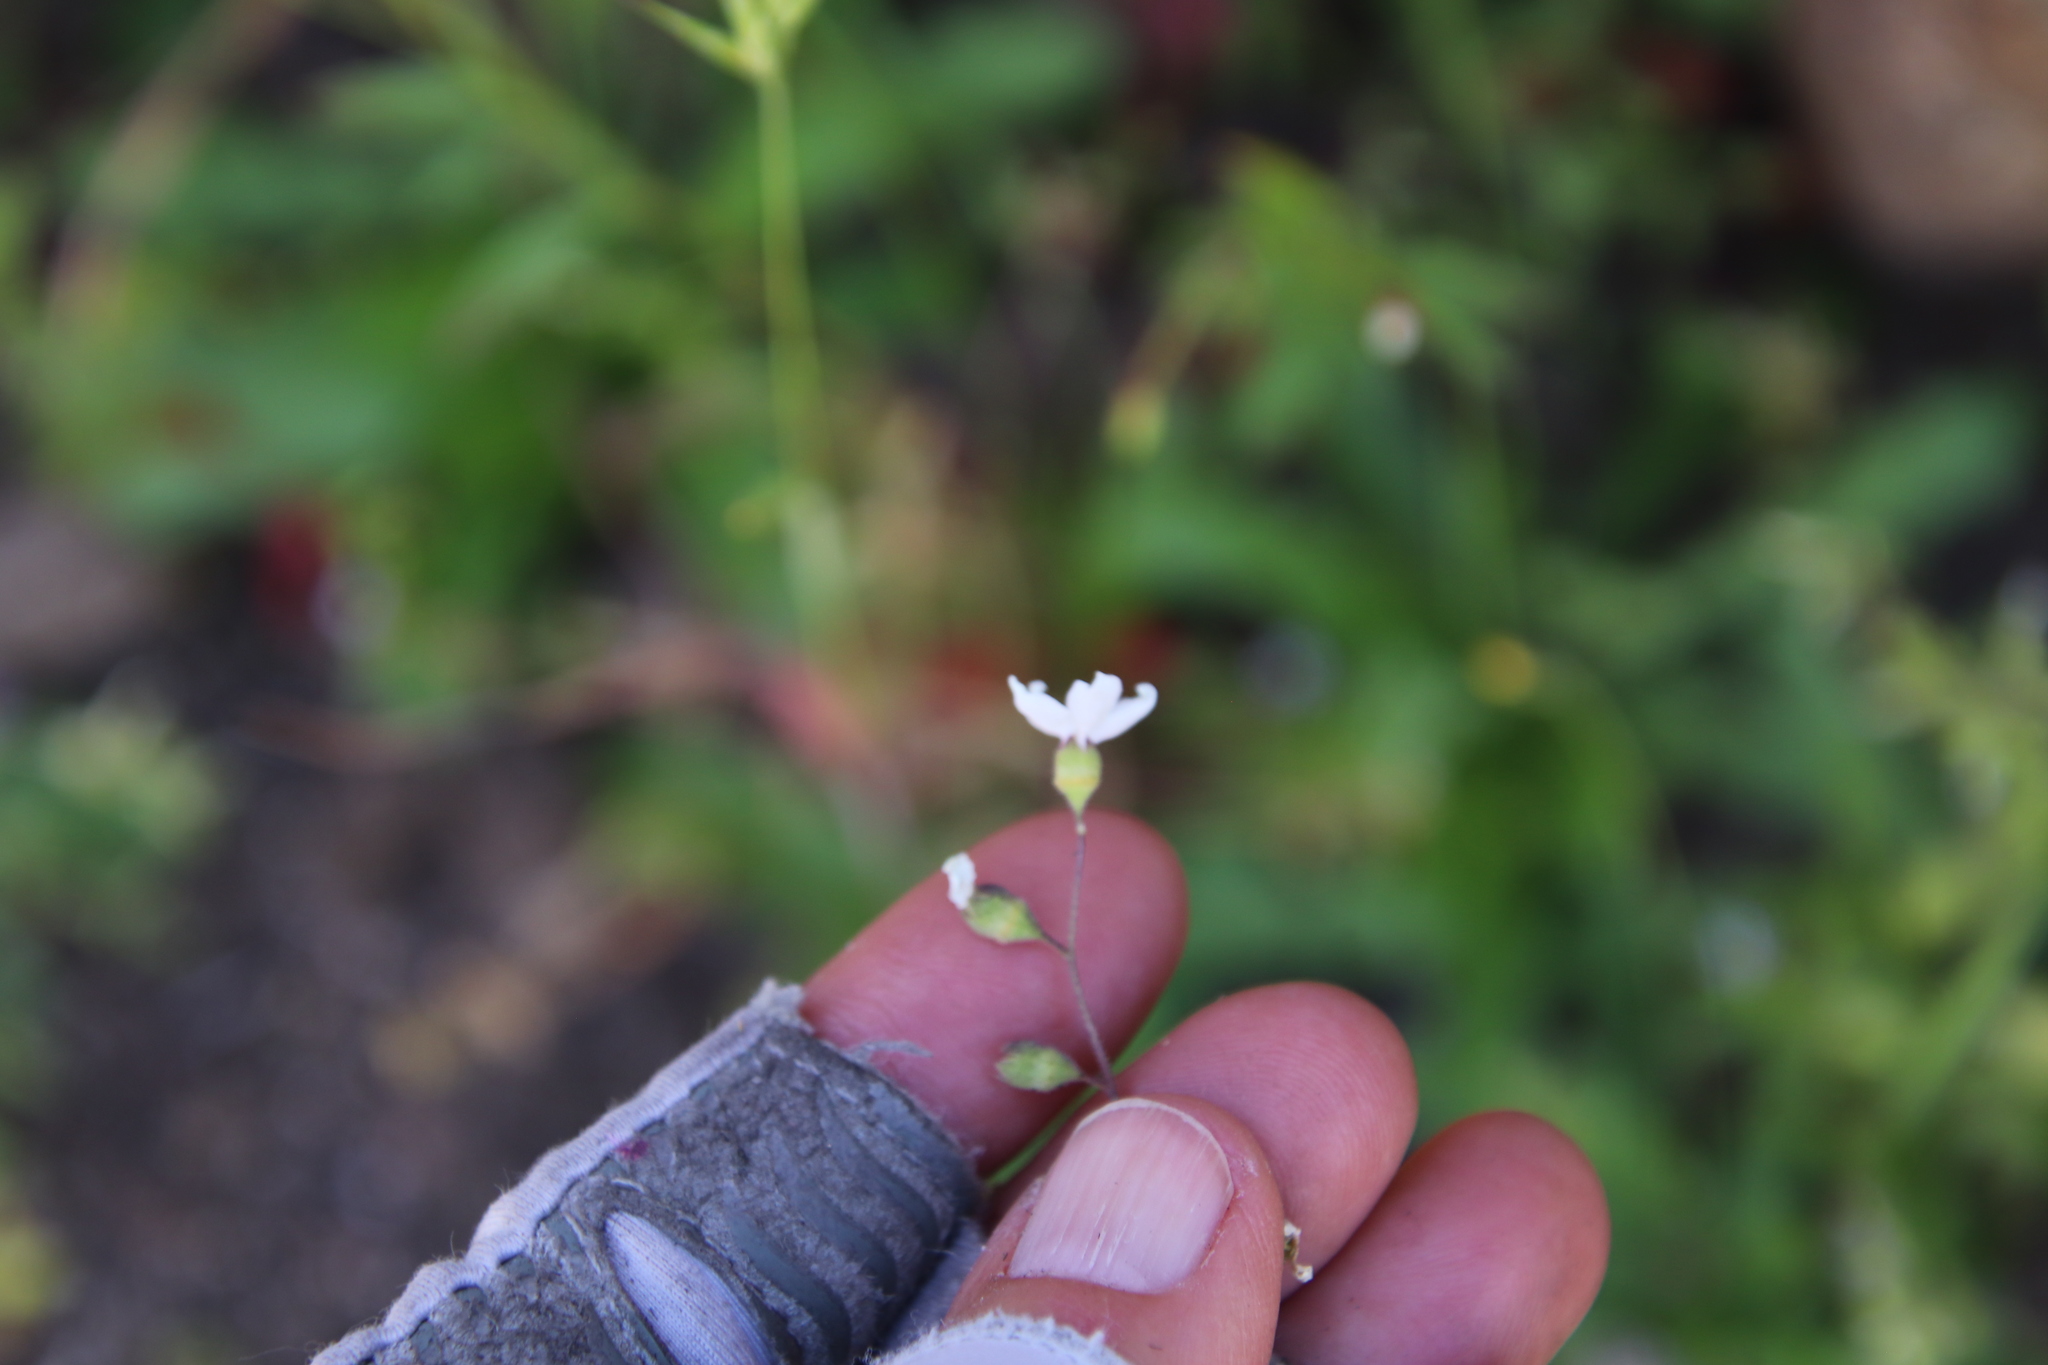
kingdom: Plantae
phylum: Tracheophyta
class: Magnoliopsida
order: Saxifragales
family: Saxifragaceae
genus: Lithophragma
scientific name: Lithophragma affine
